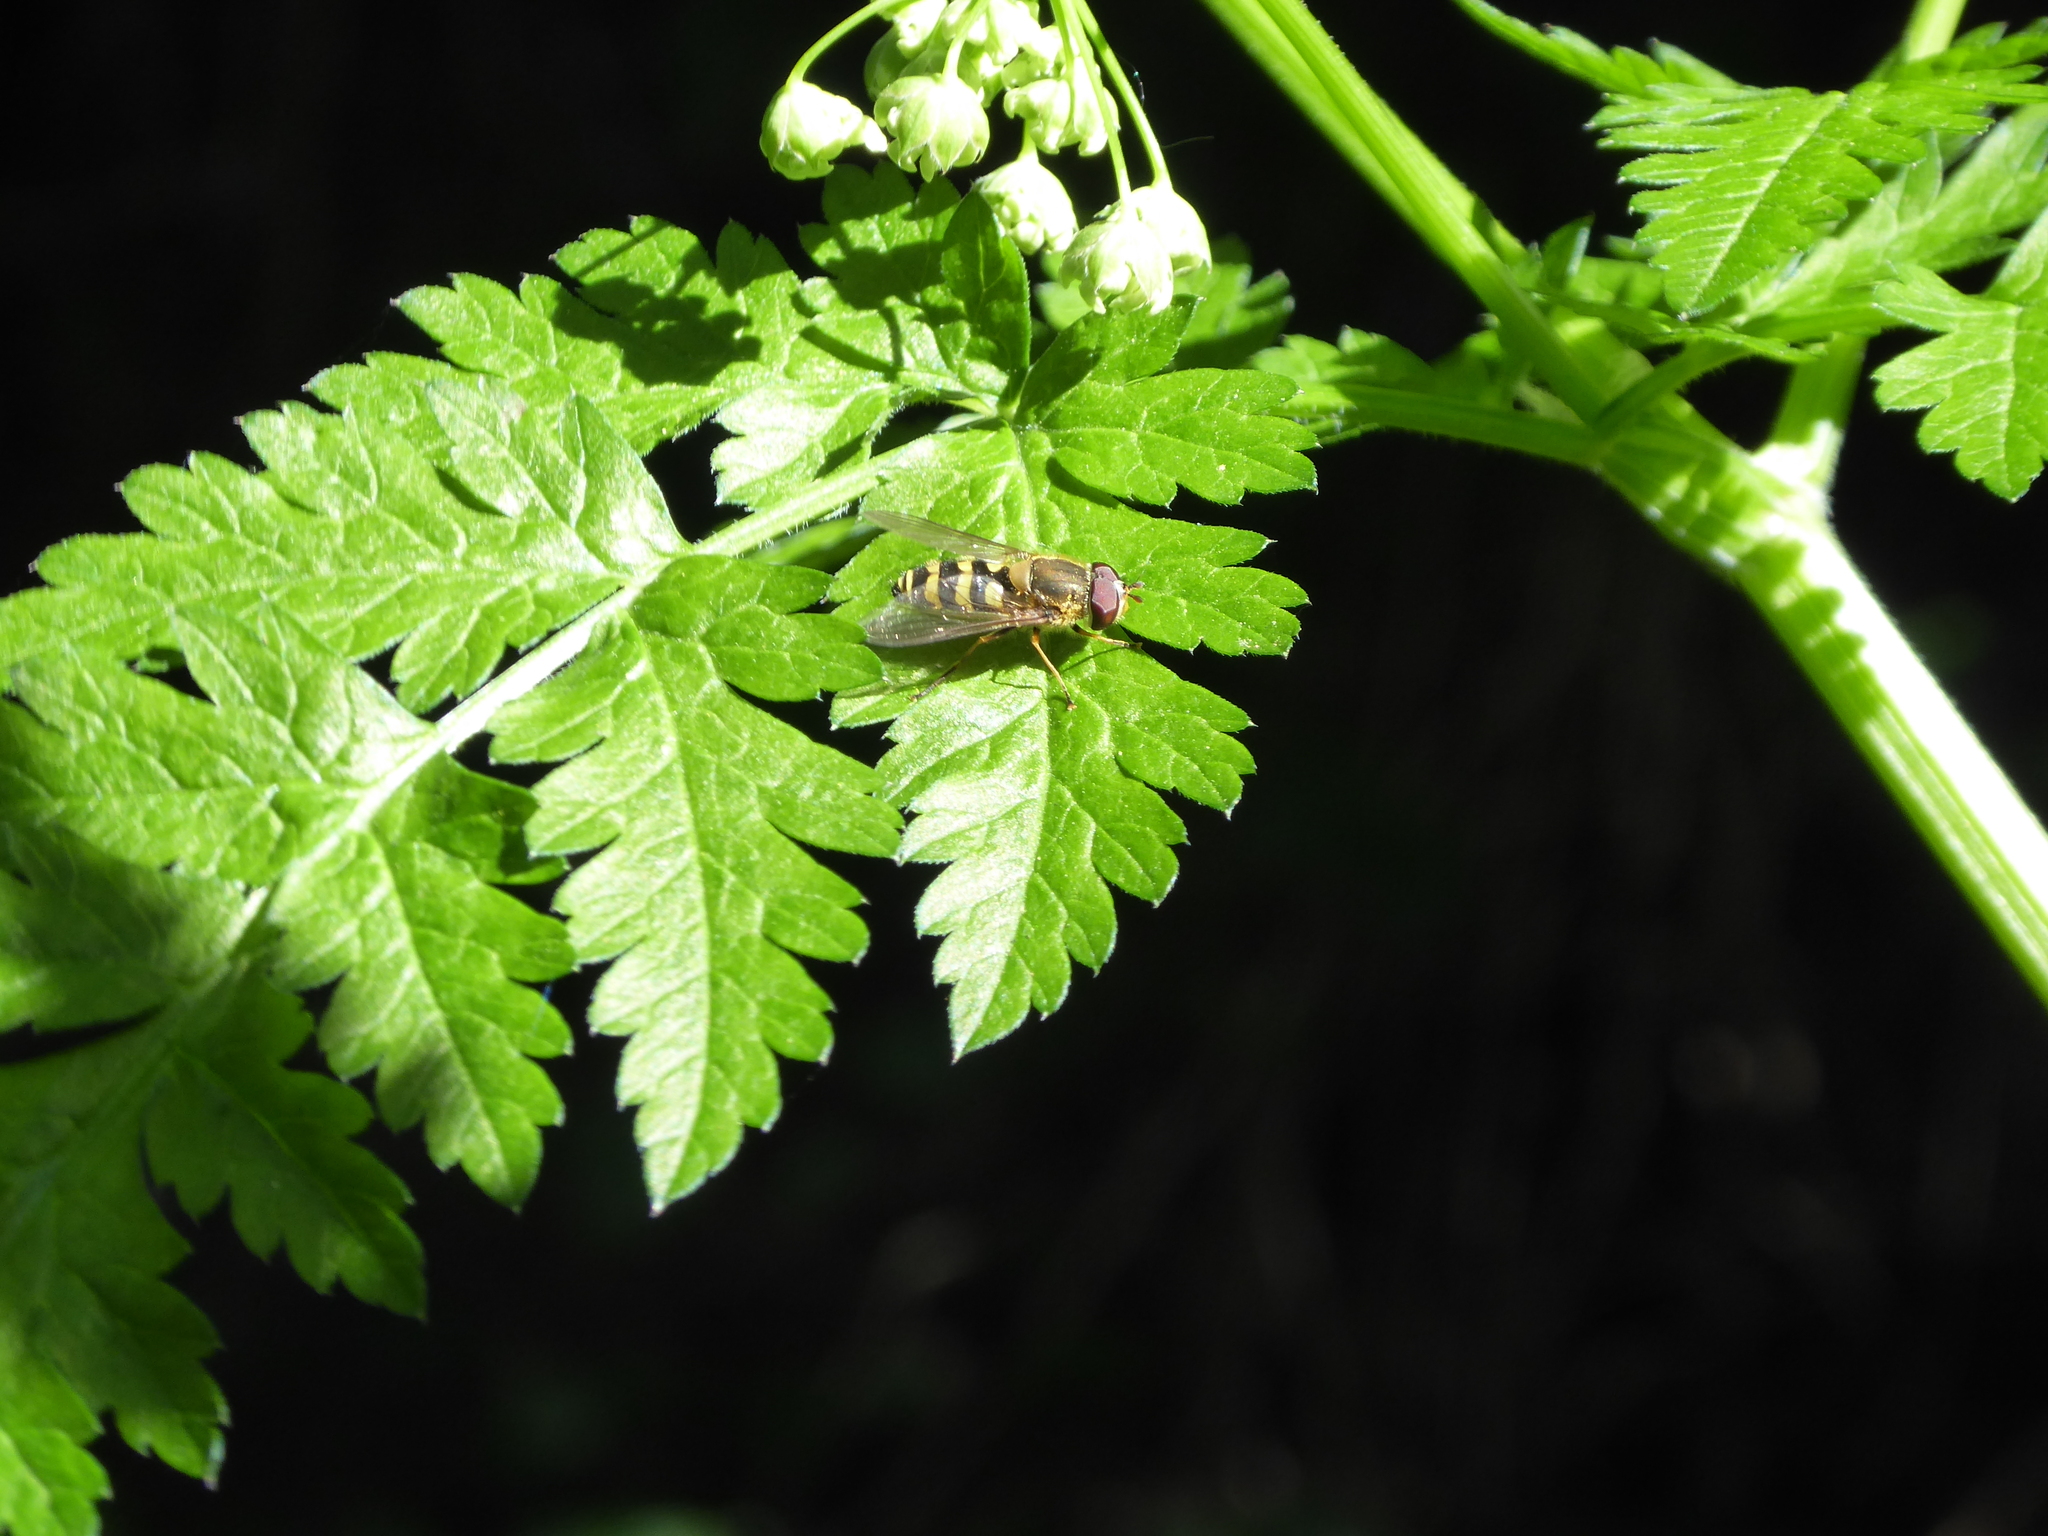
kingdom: Animalia
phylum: Arthropoda
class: Insecta
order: Diptera
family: Syrphidae
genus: Syrphus
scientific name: Syrphus
